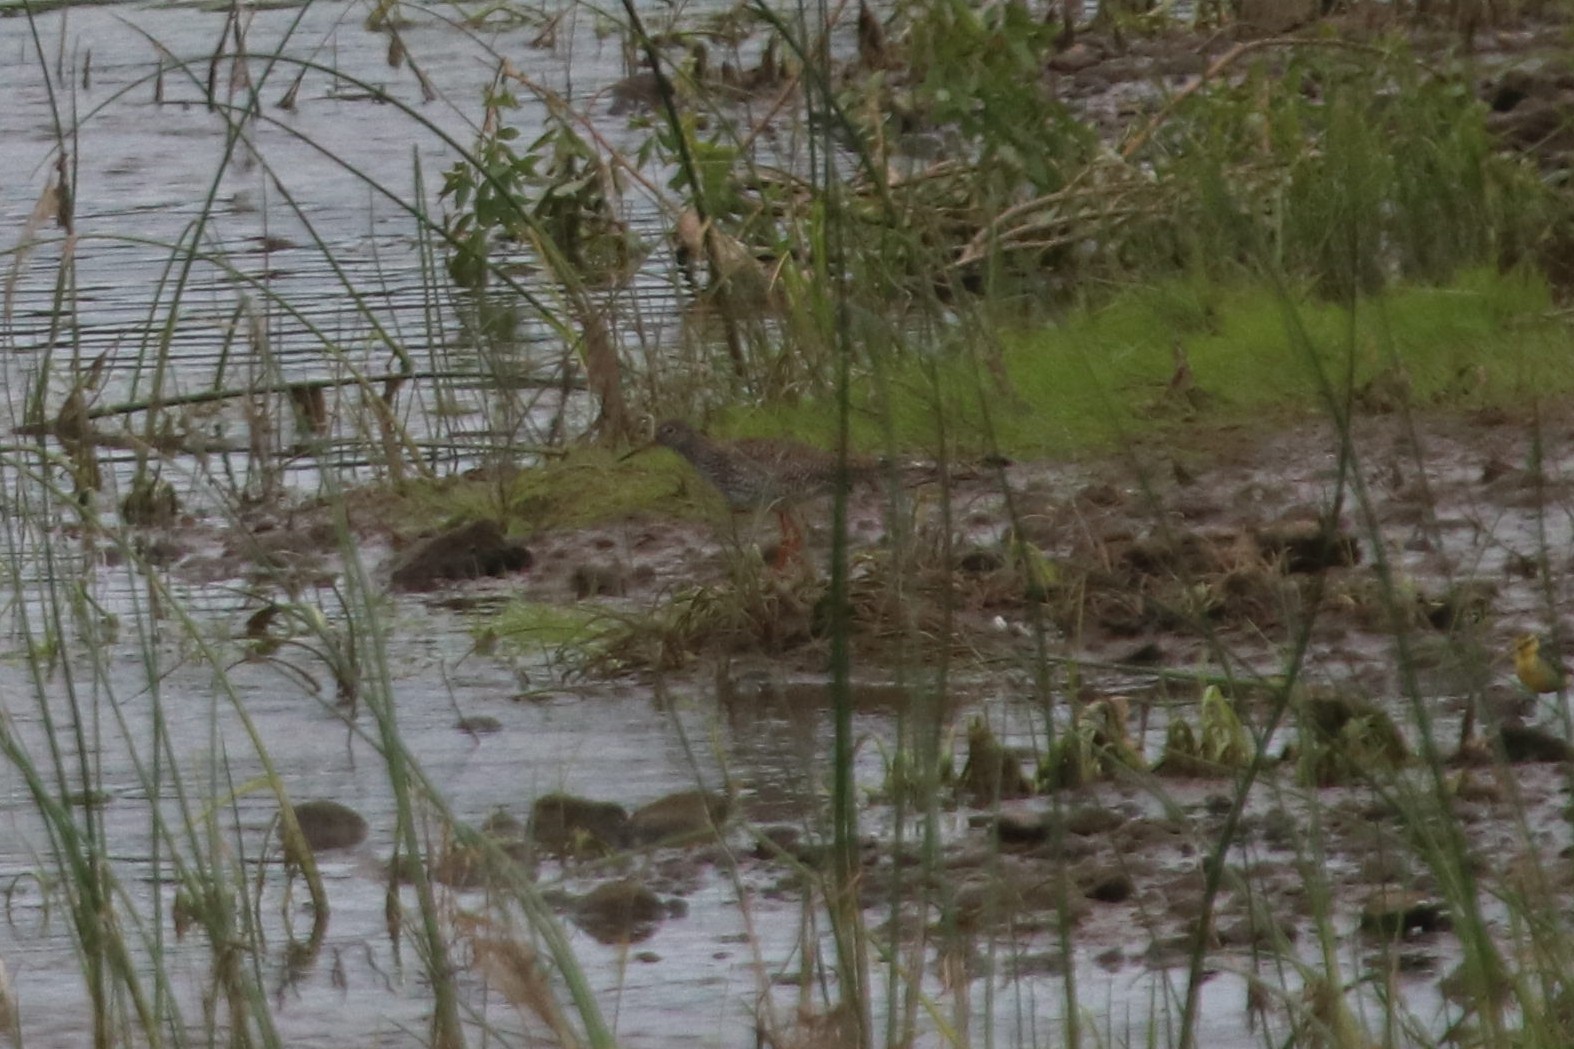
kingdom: Animalia
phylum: Chordata
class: Aves
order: Charadriiformes
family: Scolopacidae
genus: Tringa
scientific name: Tringa totanus
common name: Common redshank
